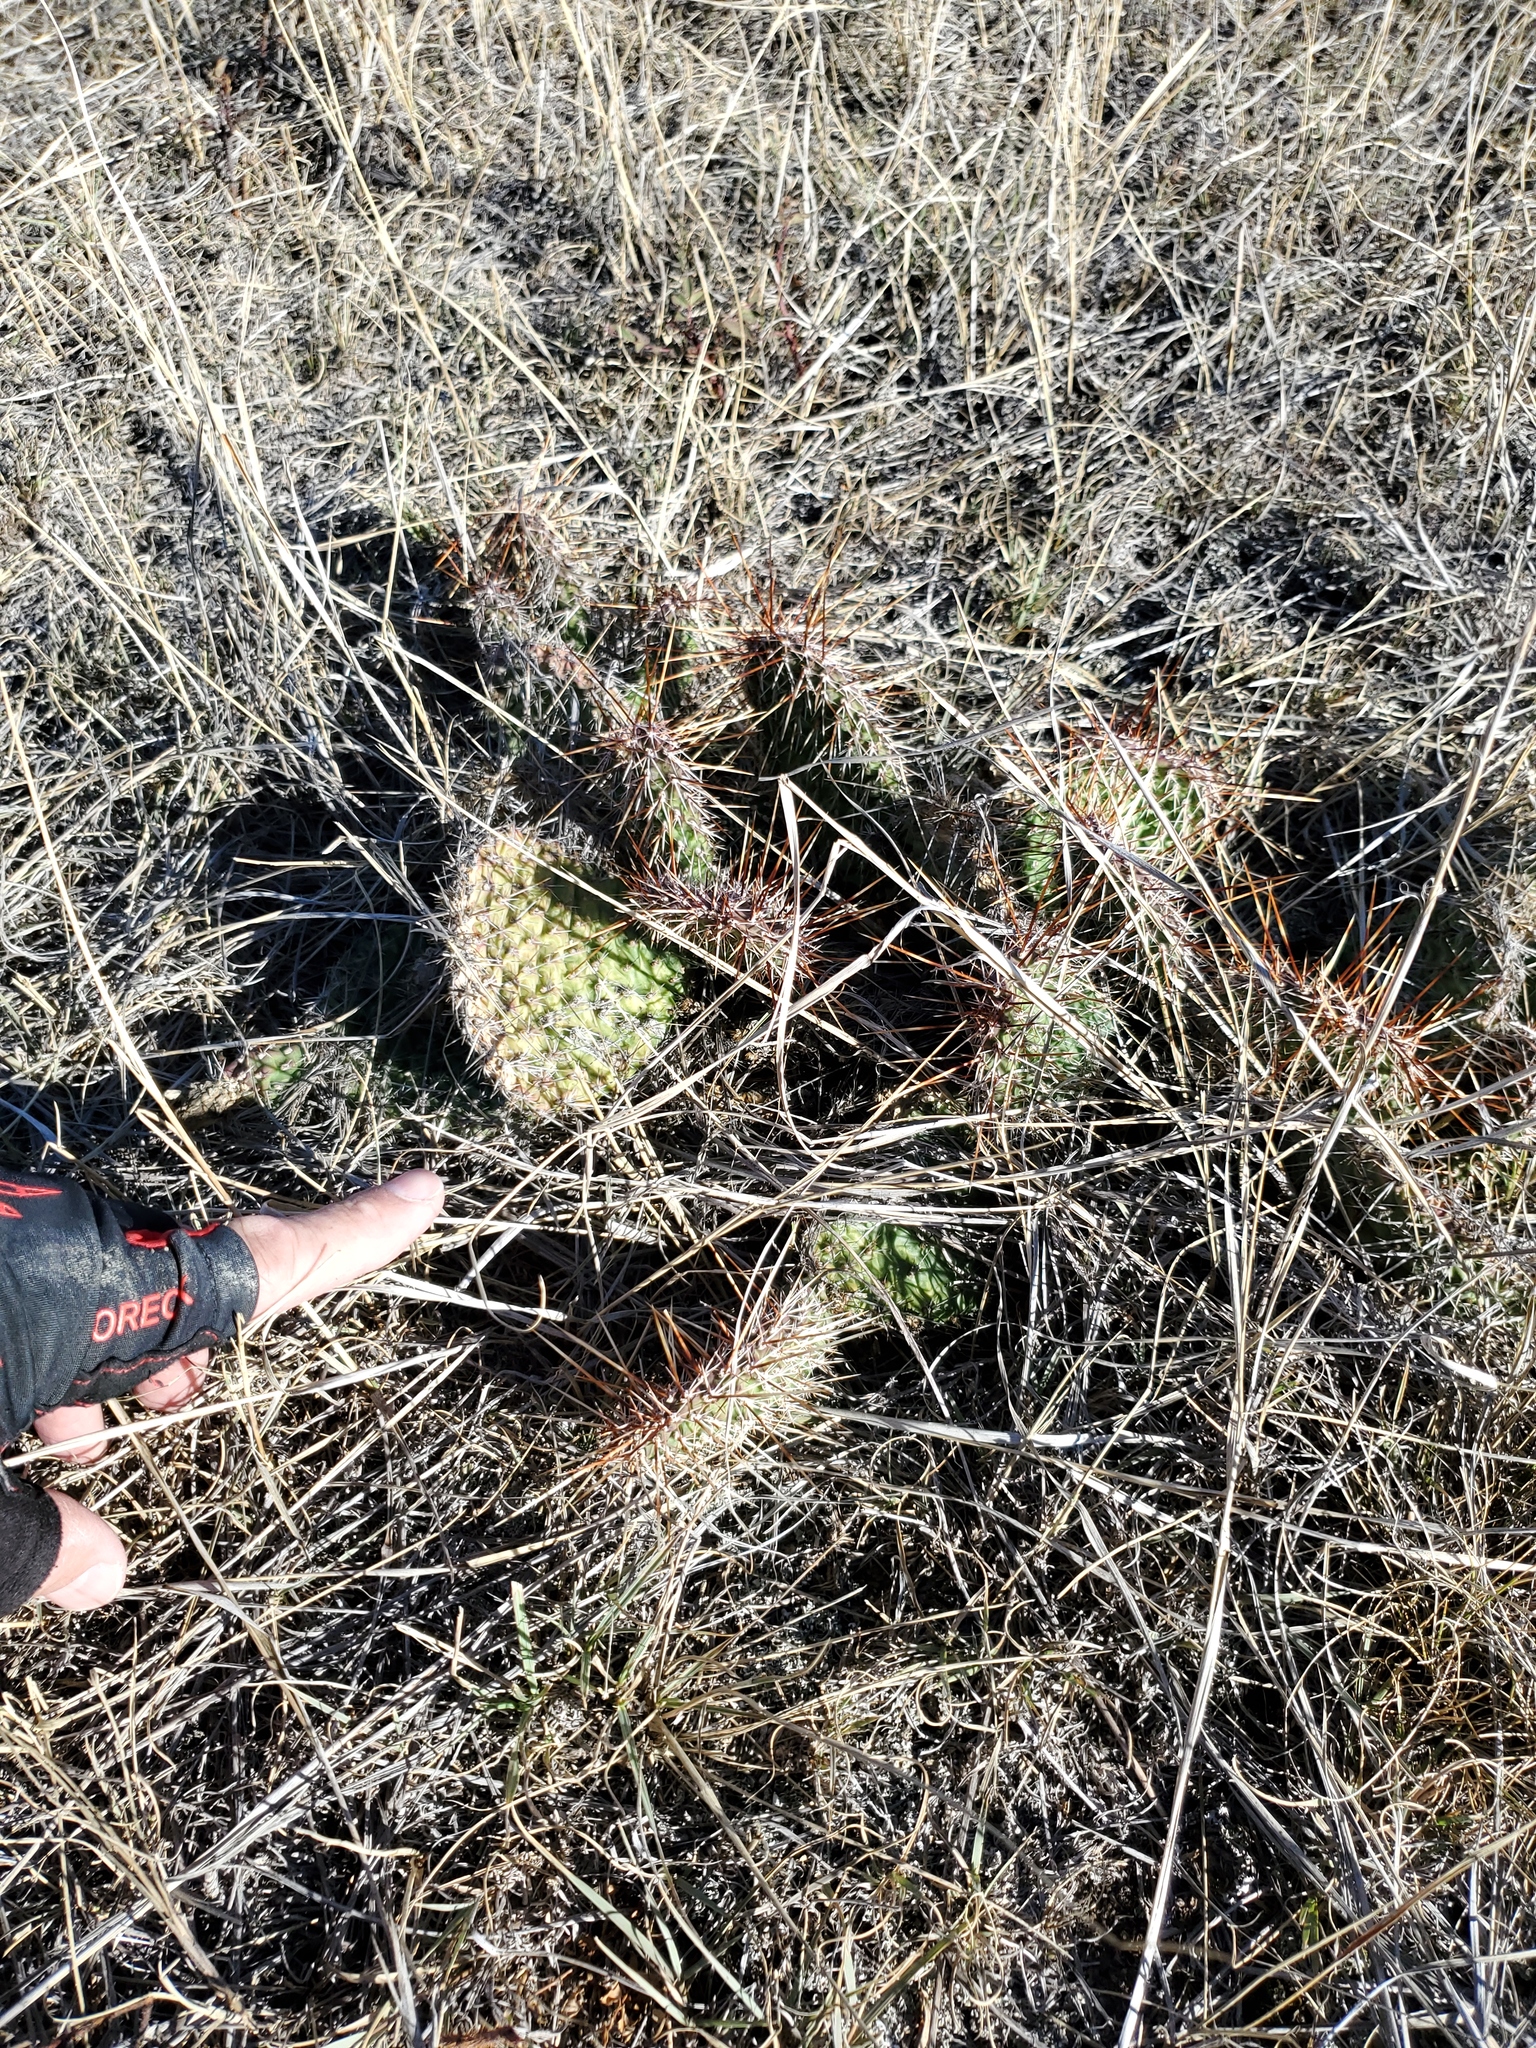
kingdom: Plantae
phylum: Tracheophyta
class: Magnoliopsida
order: Caryophyllales
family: Cactaceae
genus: Opuntia
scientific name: Opuntia polyacantha
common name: Plains prickly-pear
